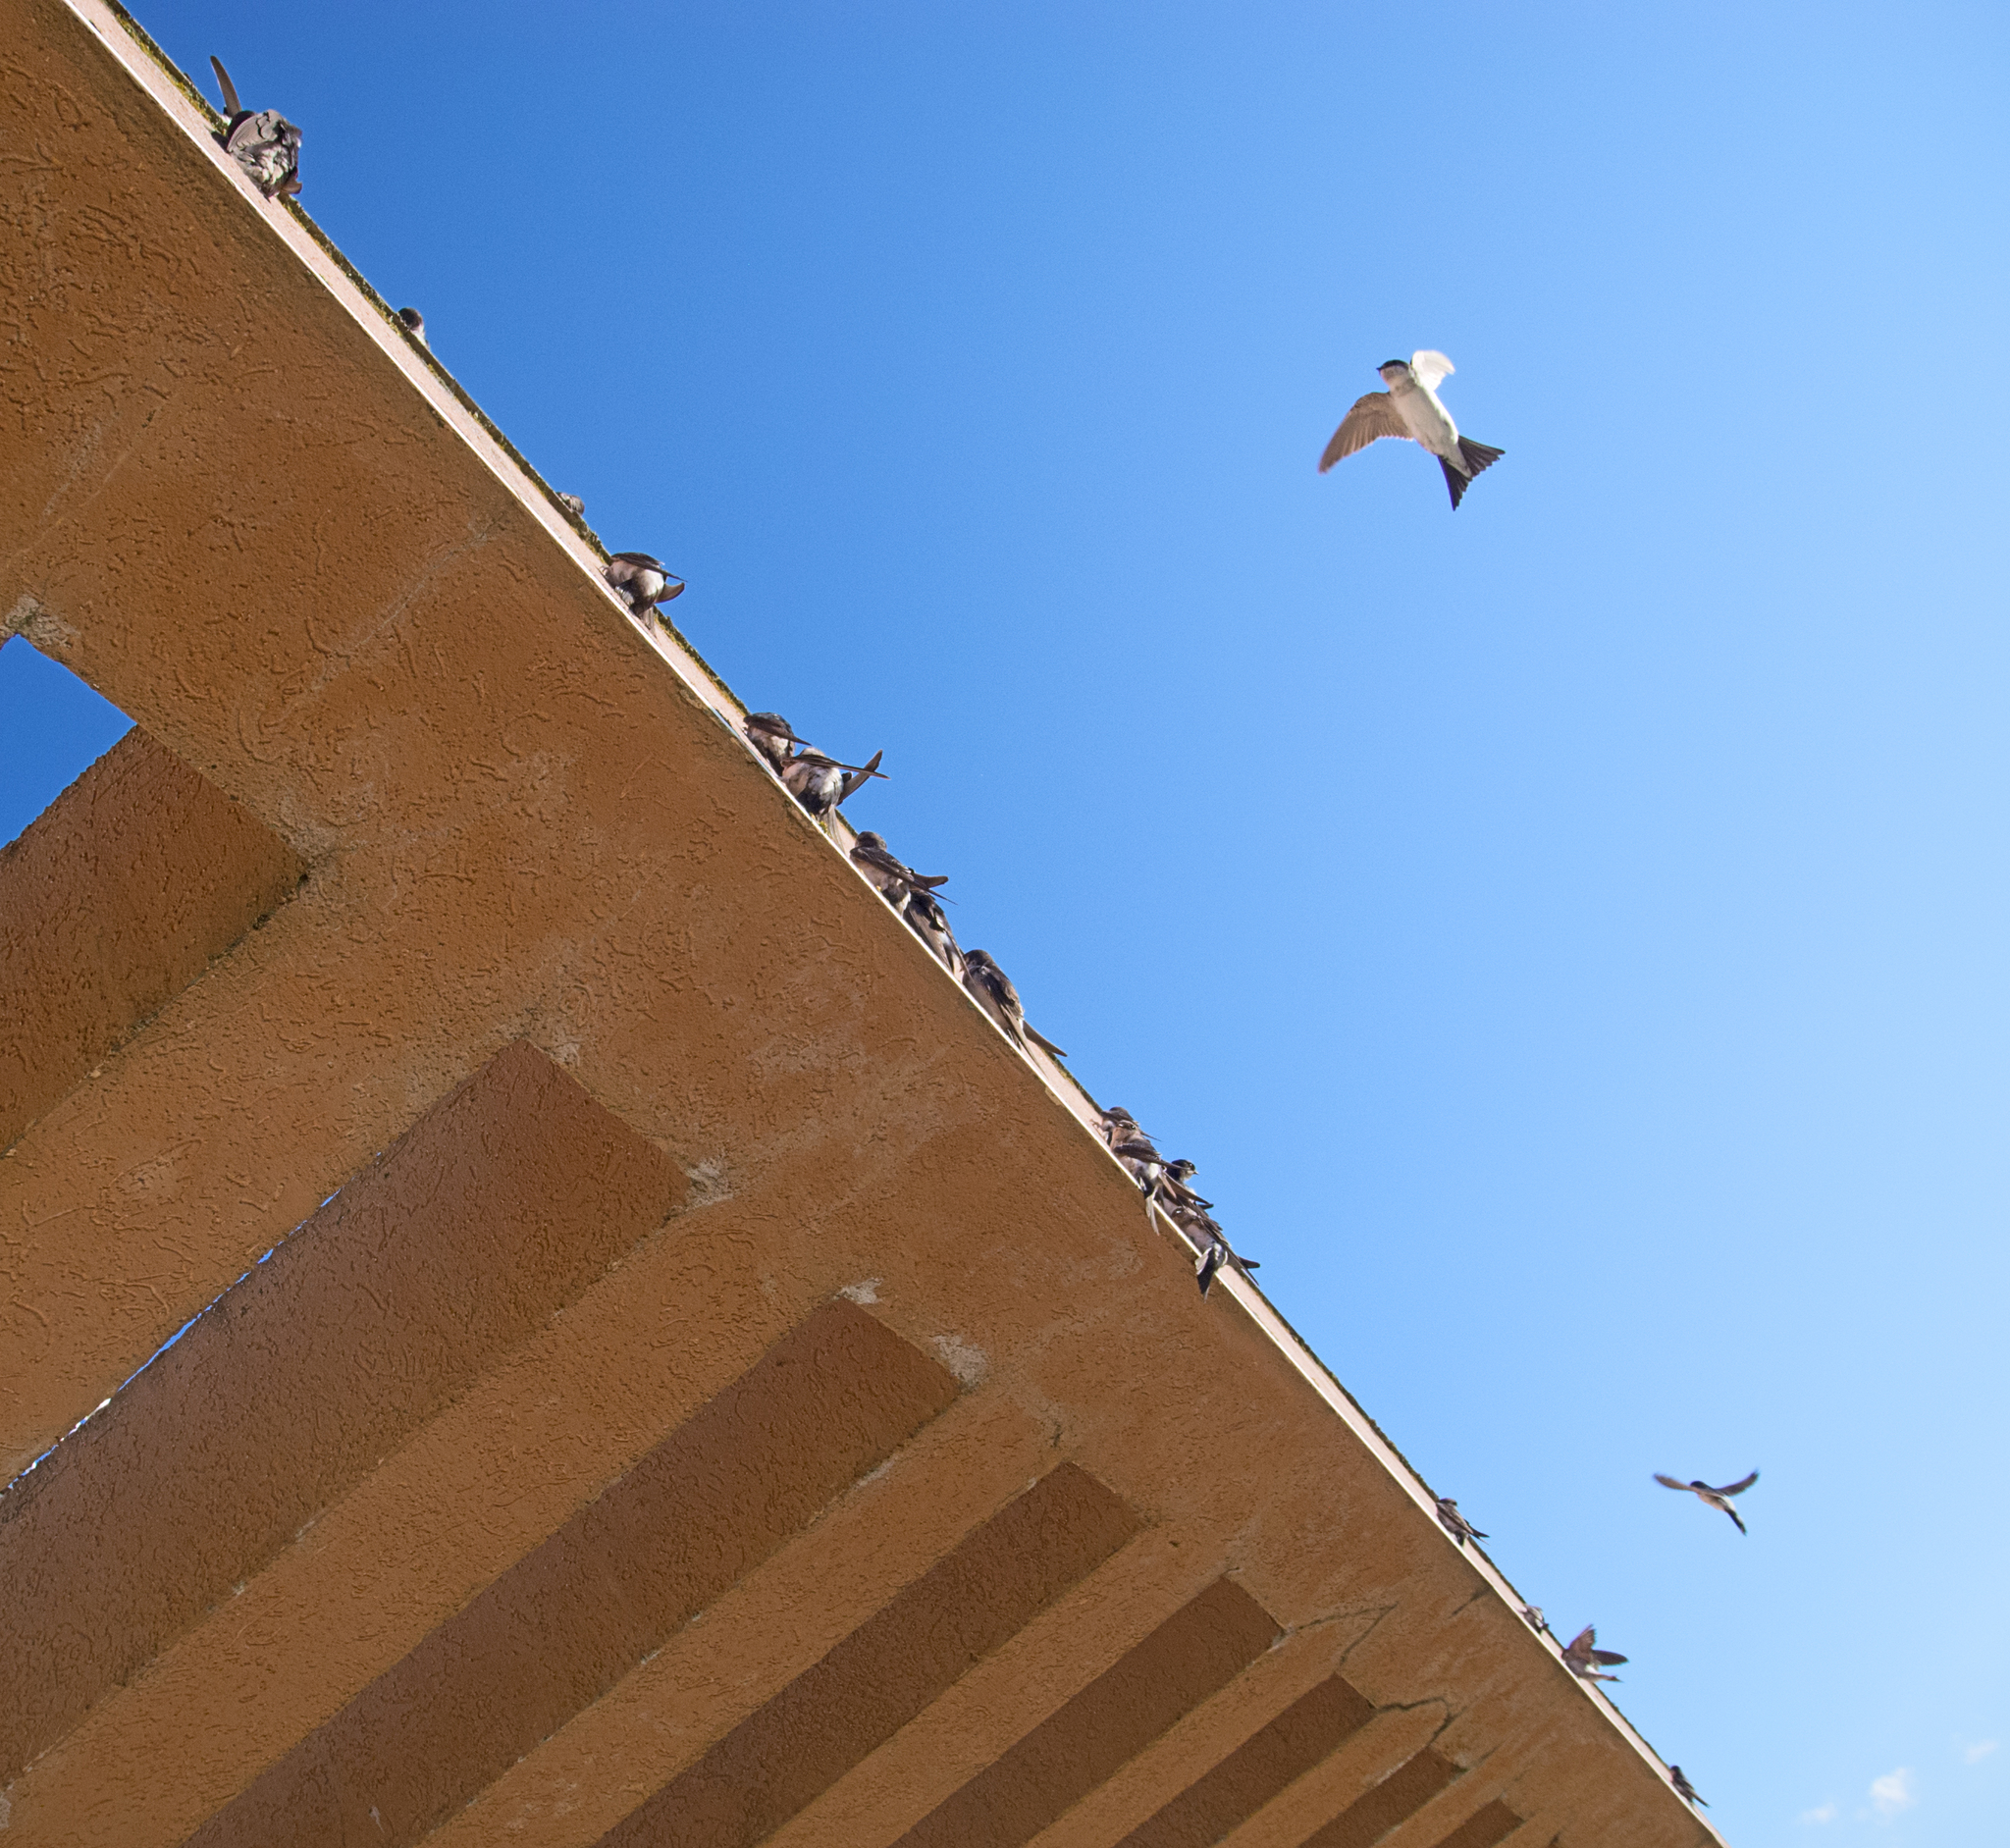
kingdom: Animalia
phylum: Chordata
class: Aves
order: Passeriformes
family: Hirundinidae
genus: Delichon
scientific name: Delichon urbicum
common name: Common house martin
